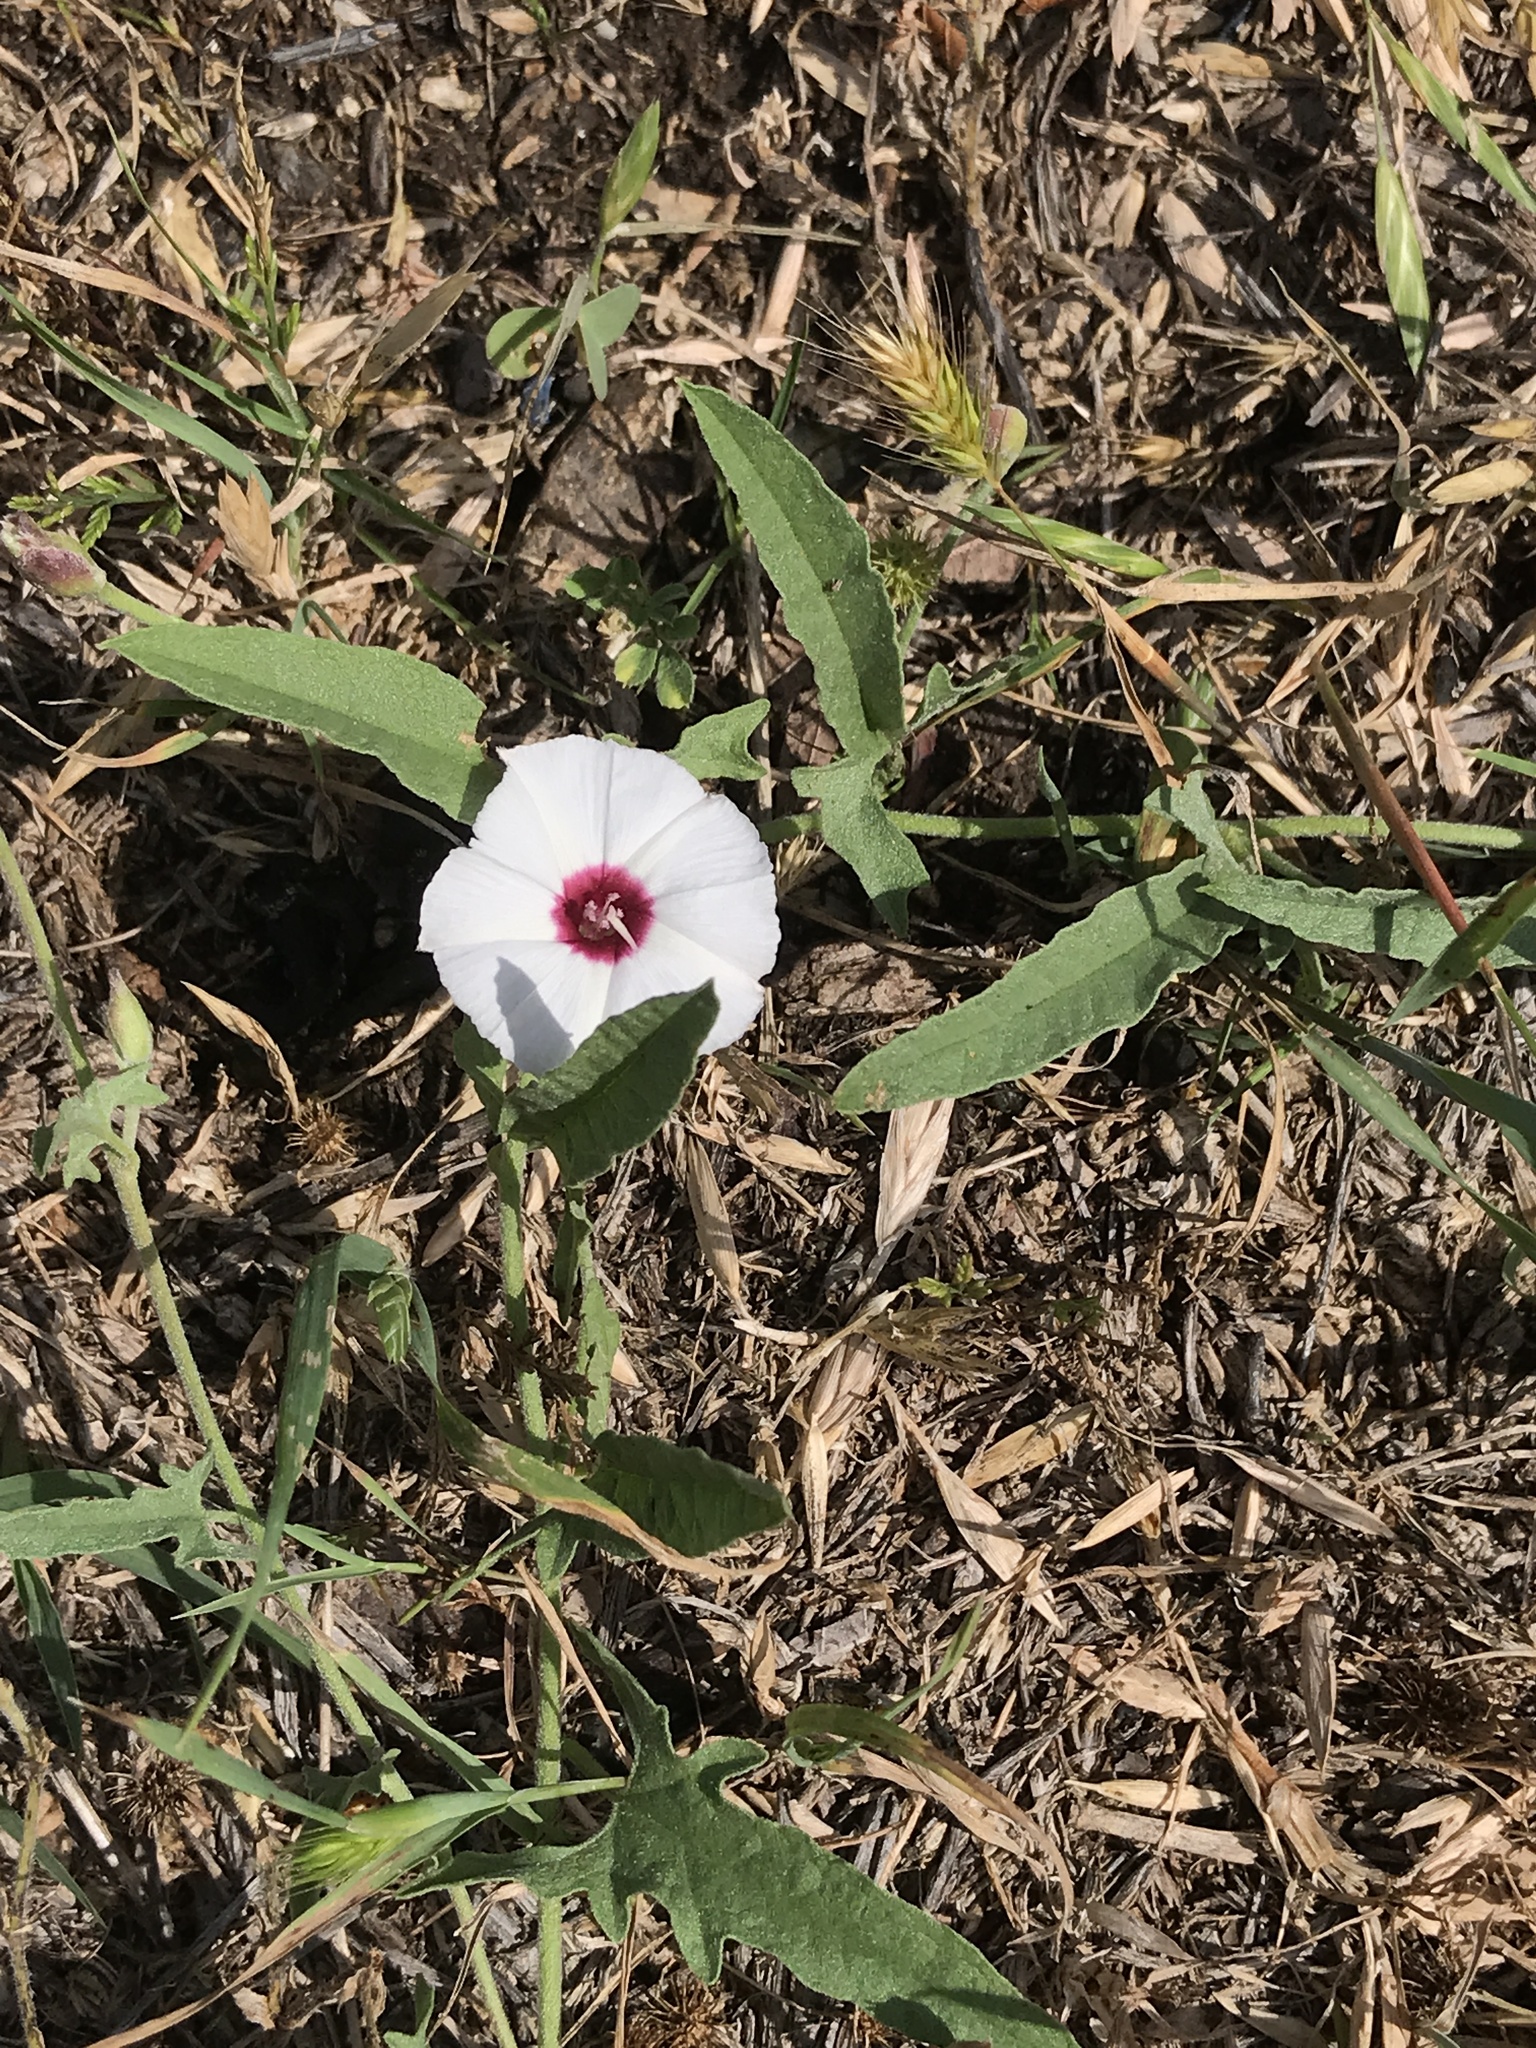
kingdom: Plantae
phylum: Tracheophyta
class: Magnoliopsida
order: Solanales
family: Convolvulaceae
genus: Convolvulus
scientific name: Convolvulus equitans
